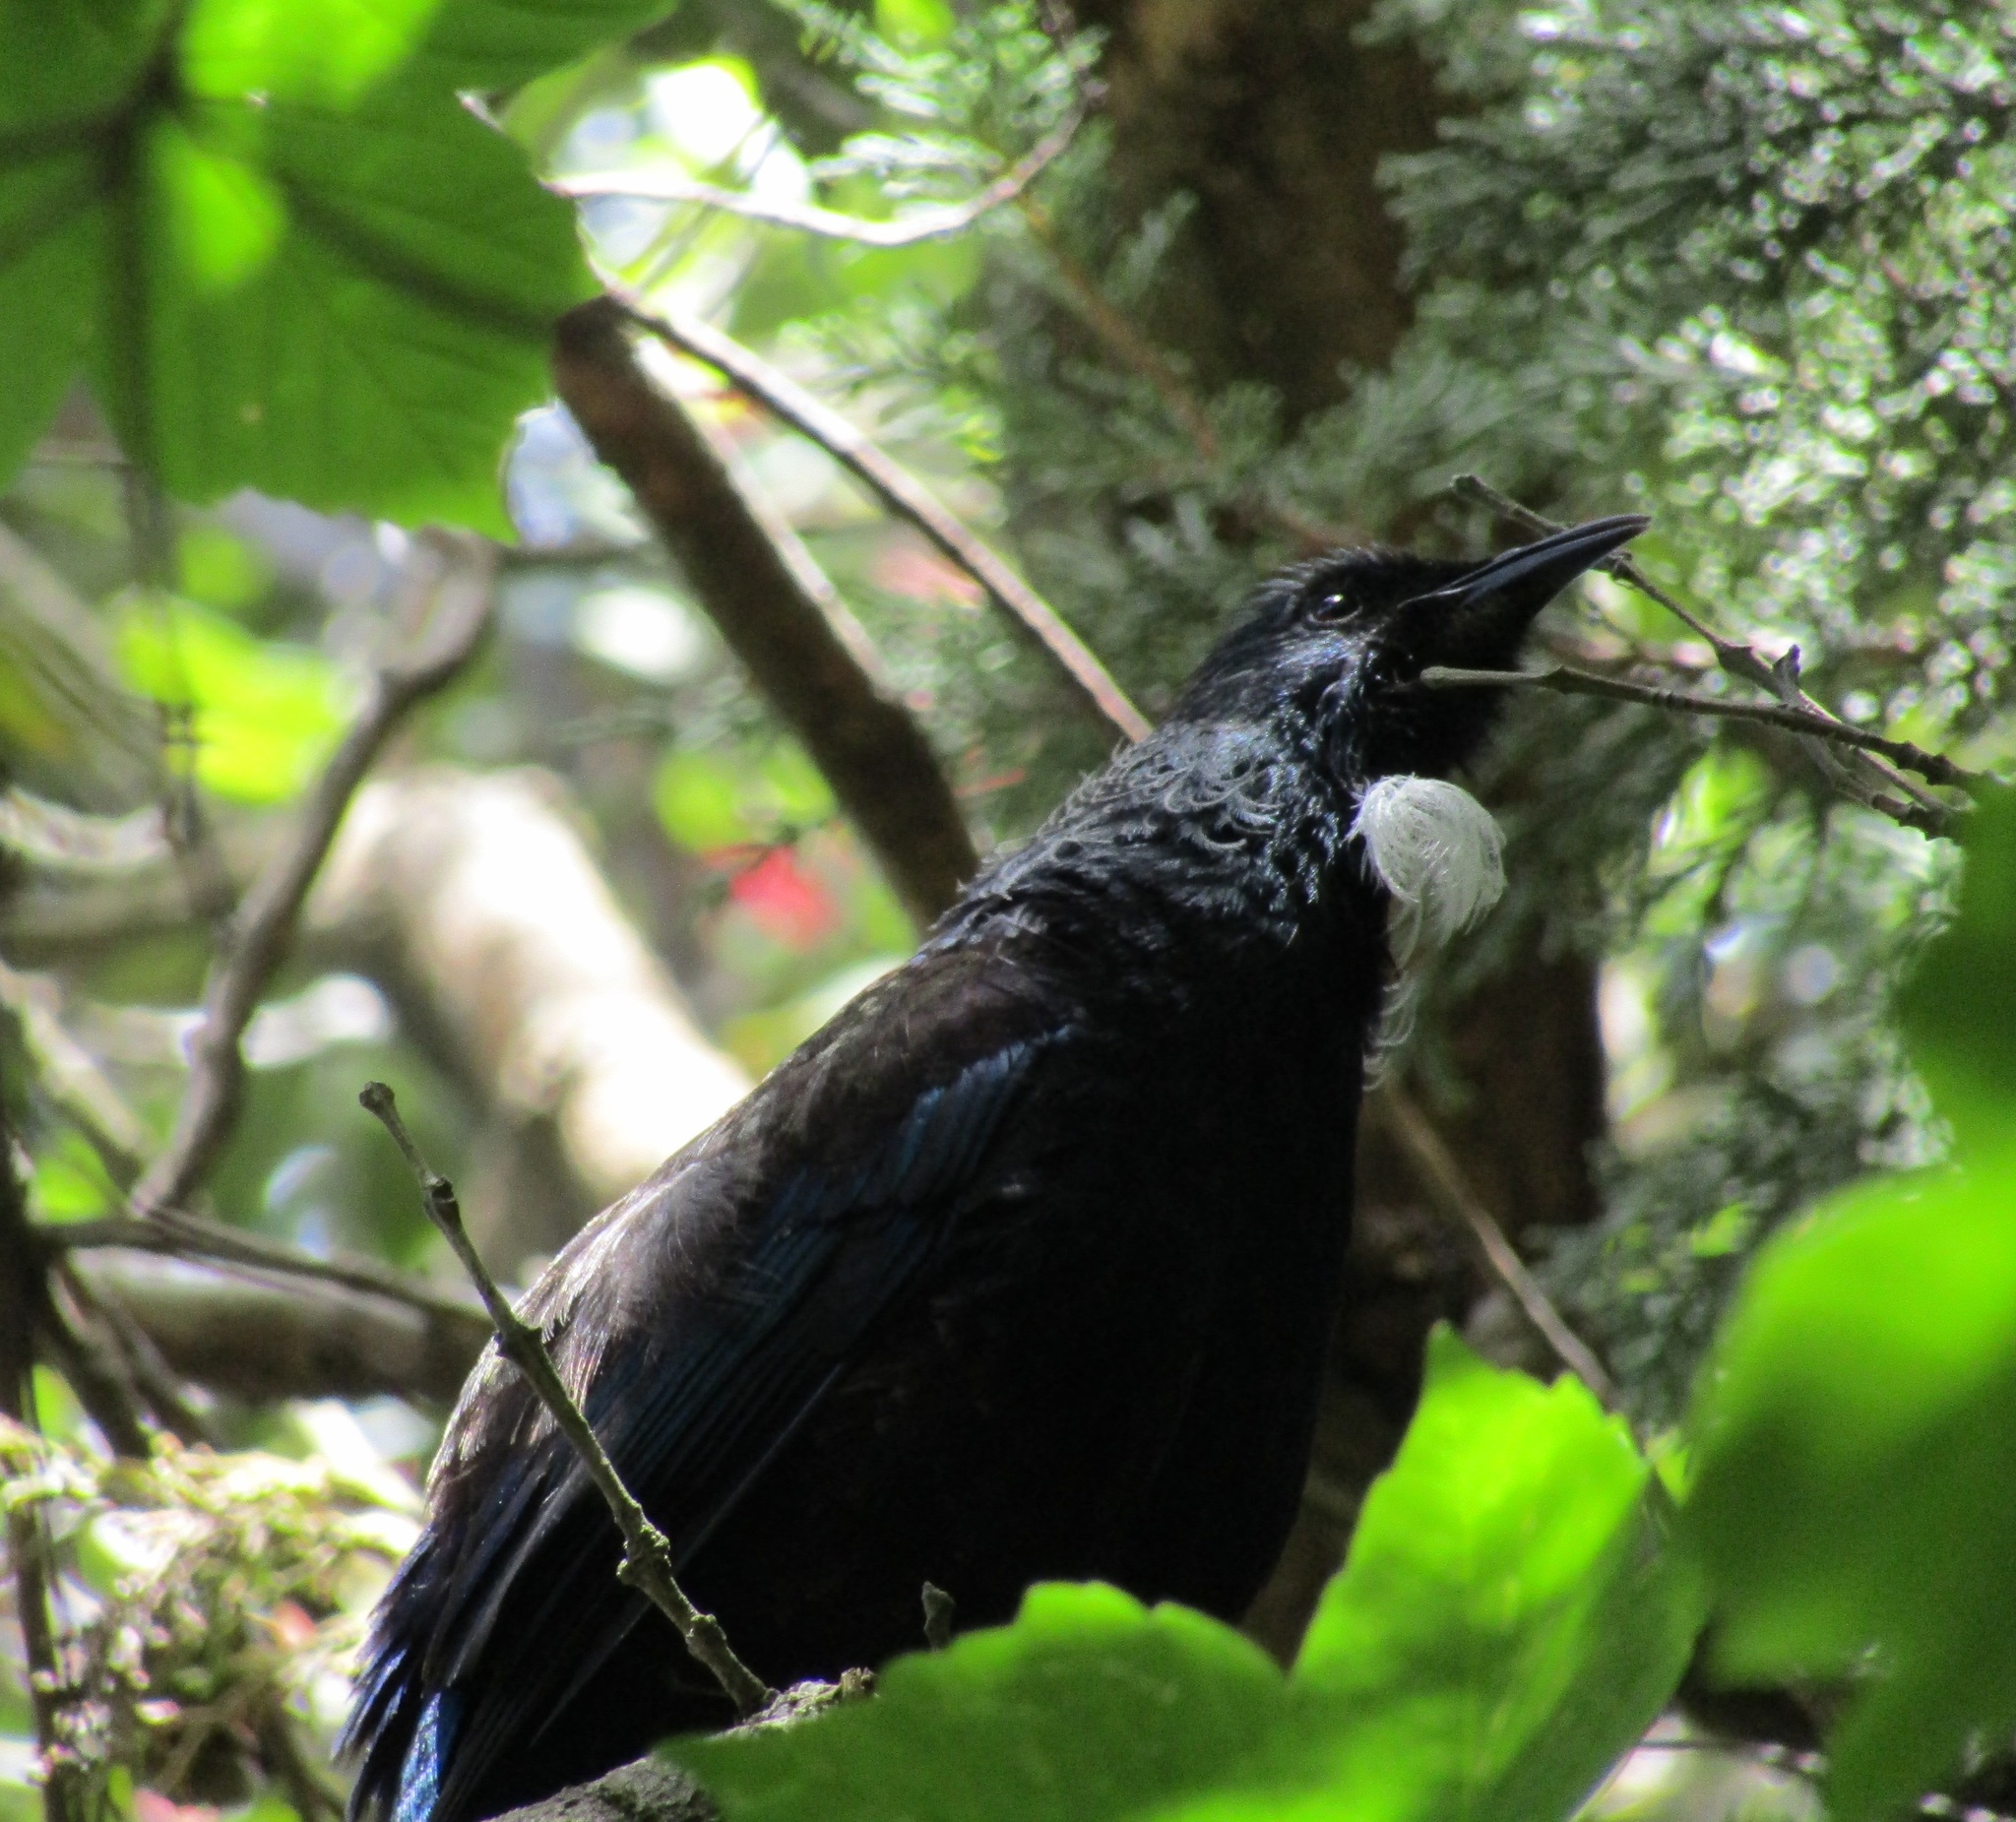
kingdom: Animalia
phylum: Chordata
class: Aves
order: Passeriformes
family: Meliphagidae
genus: Prosthemadera
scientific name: Prosthemadera novaeseelandiae
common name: Tui
